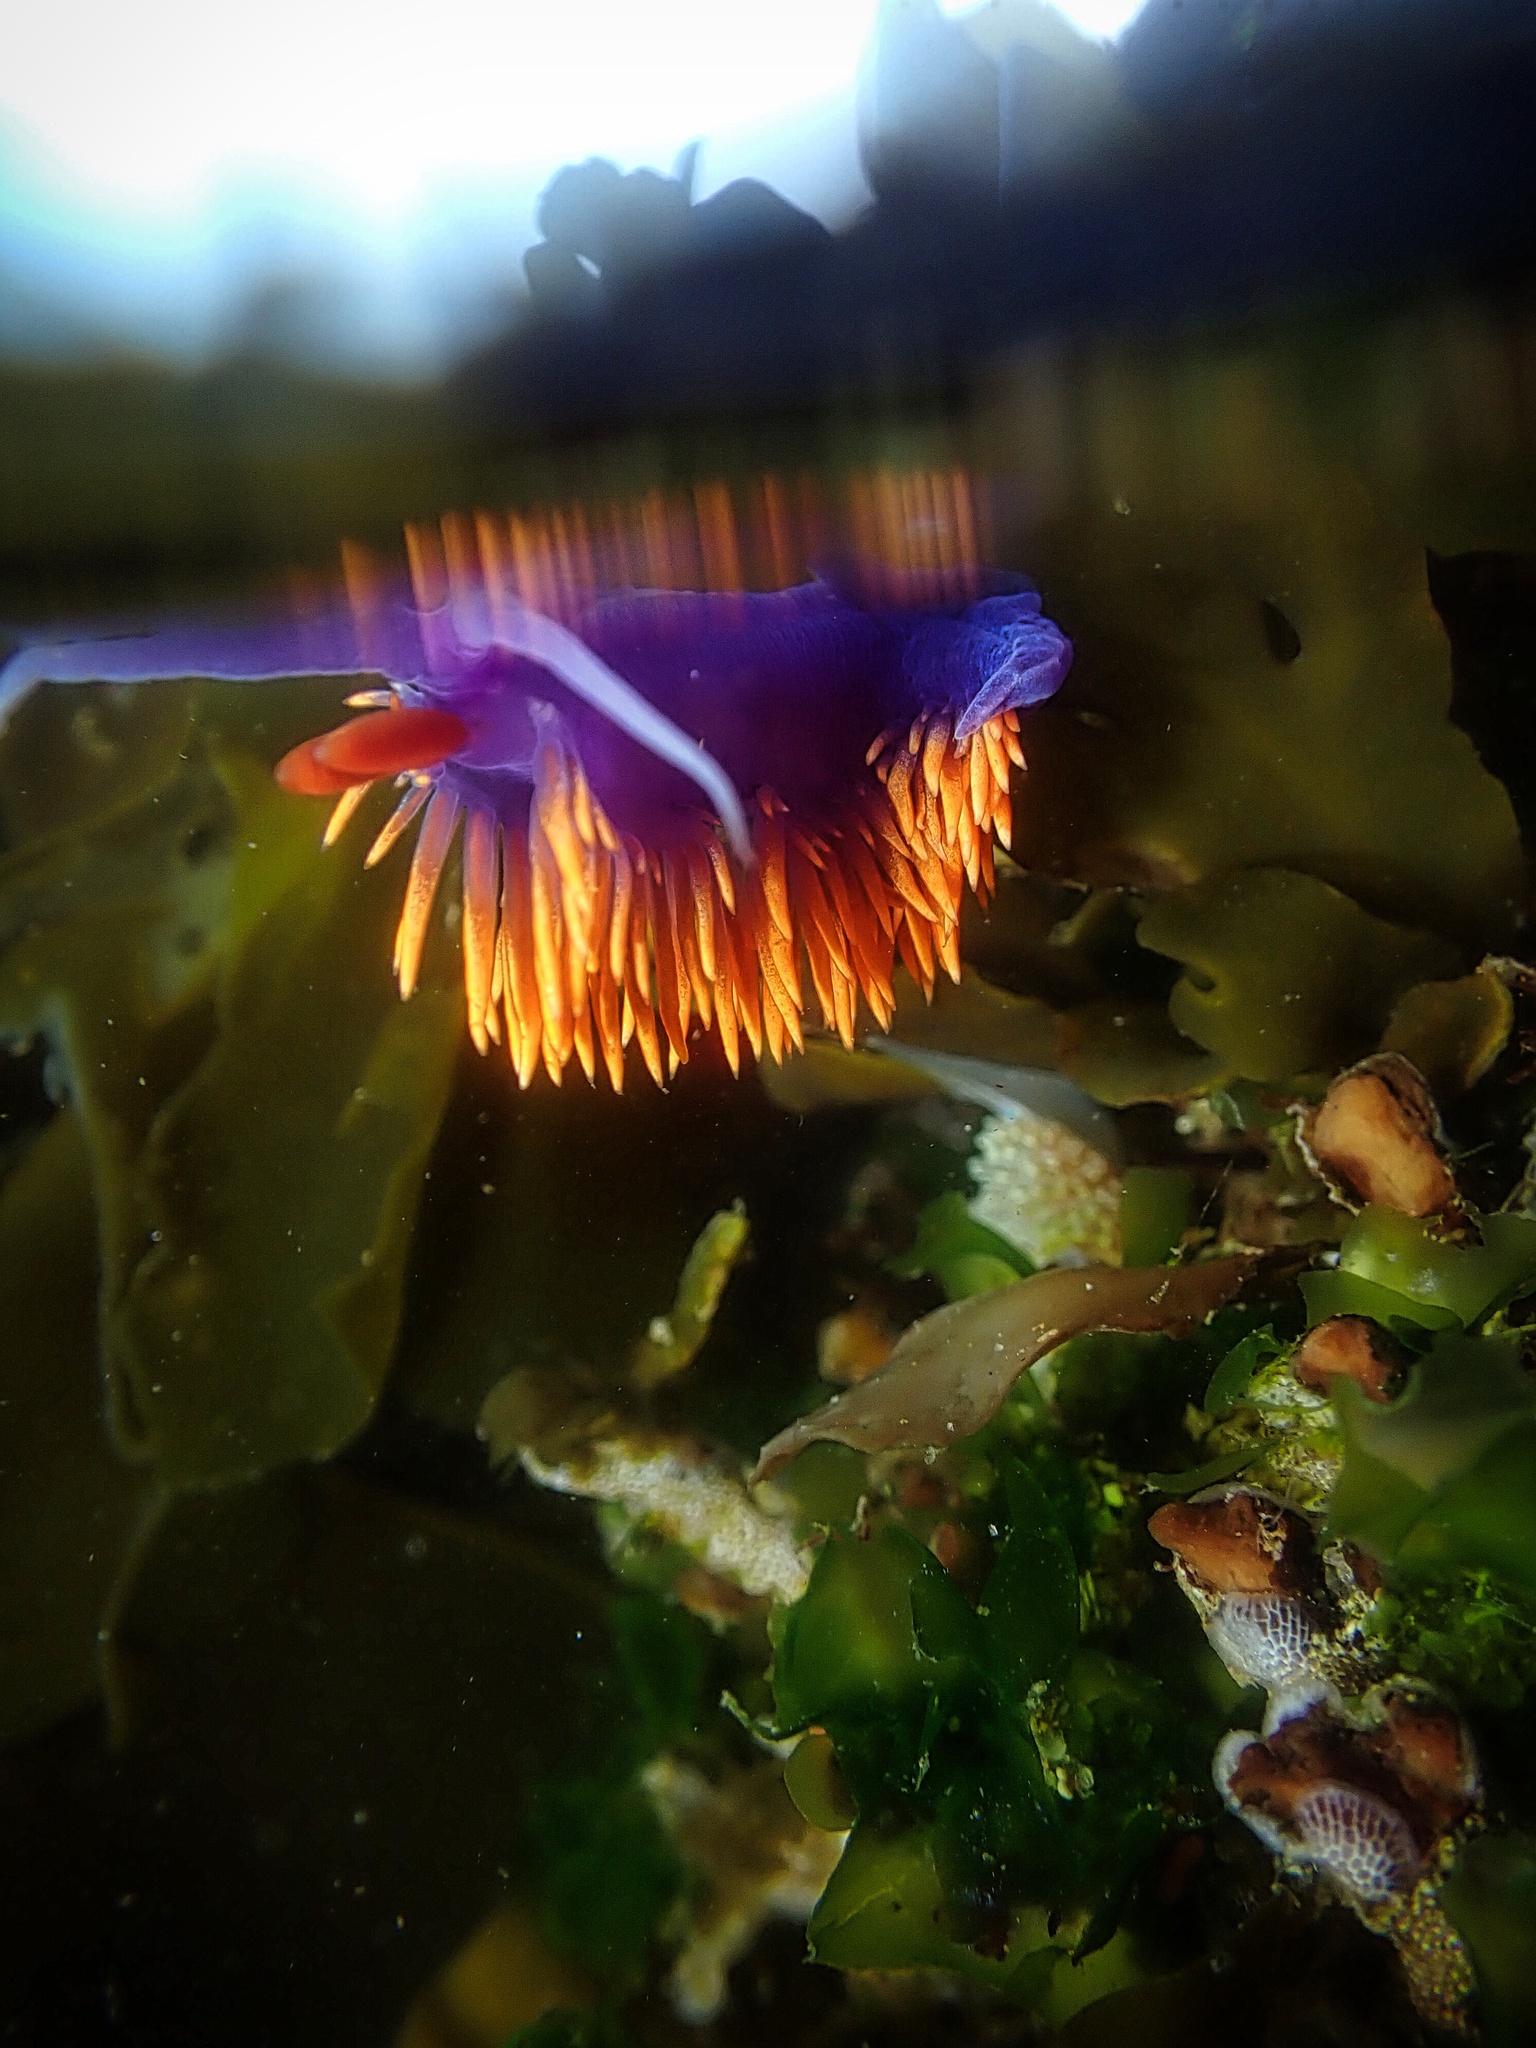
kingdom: Animalia
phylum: Mollusca
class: Gastropoda
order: Nudibranchia
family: Flabellinopsidae
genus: Flabellinopsis
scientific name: Flabellinopsis iodinea
